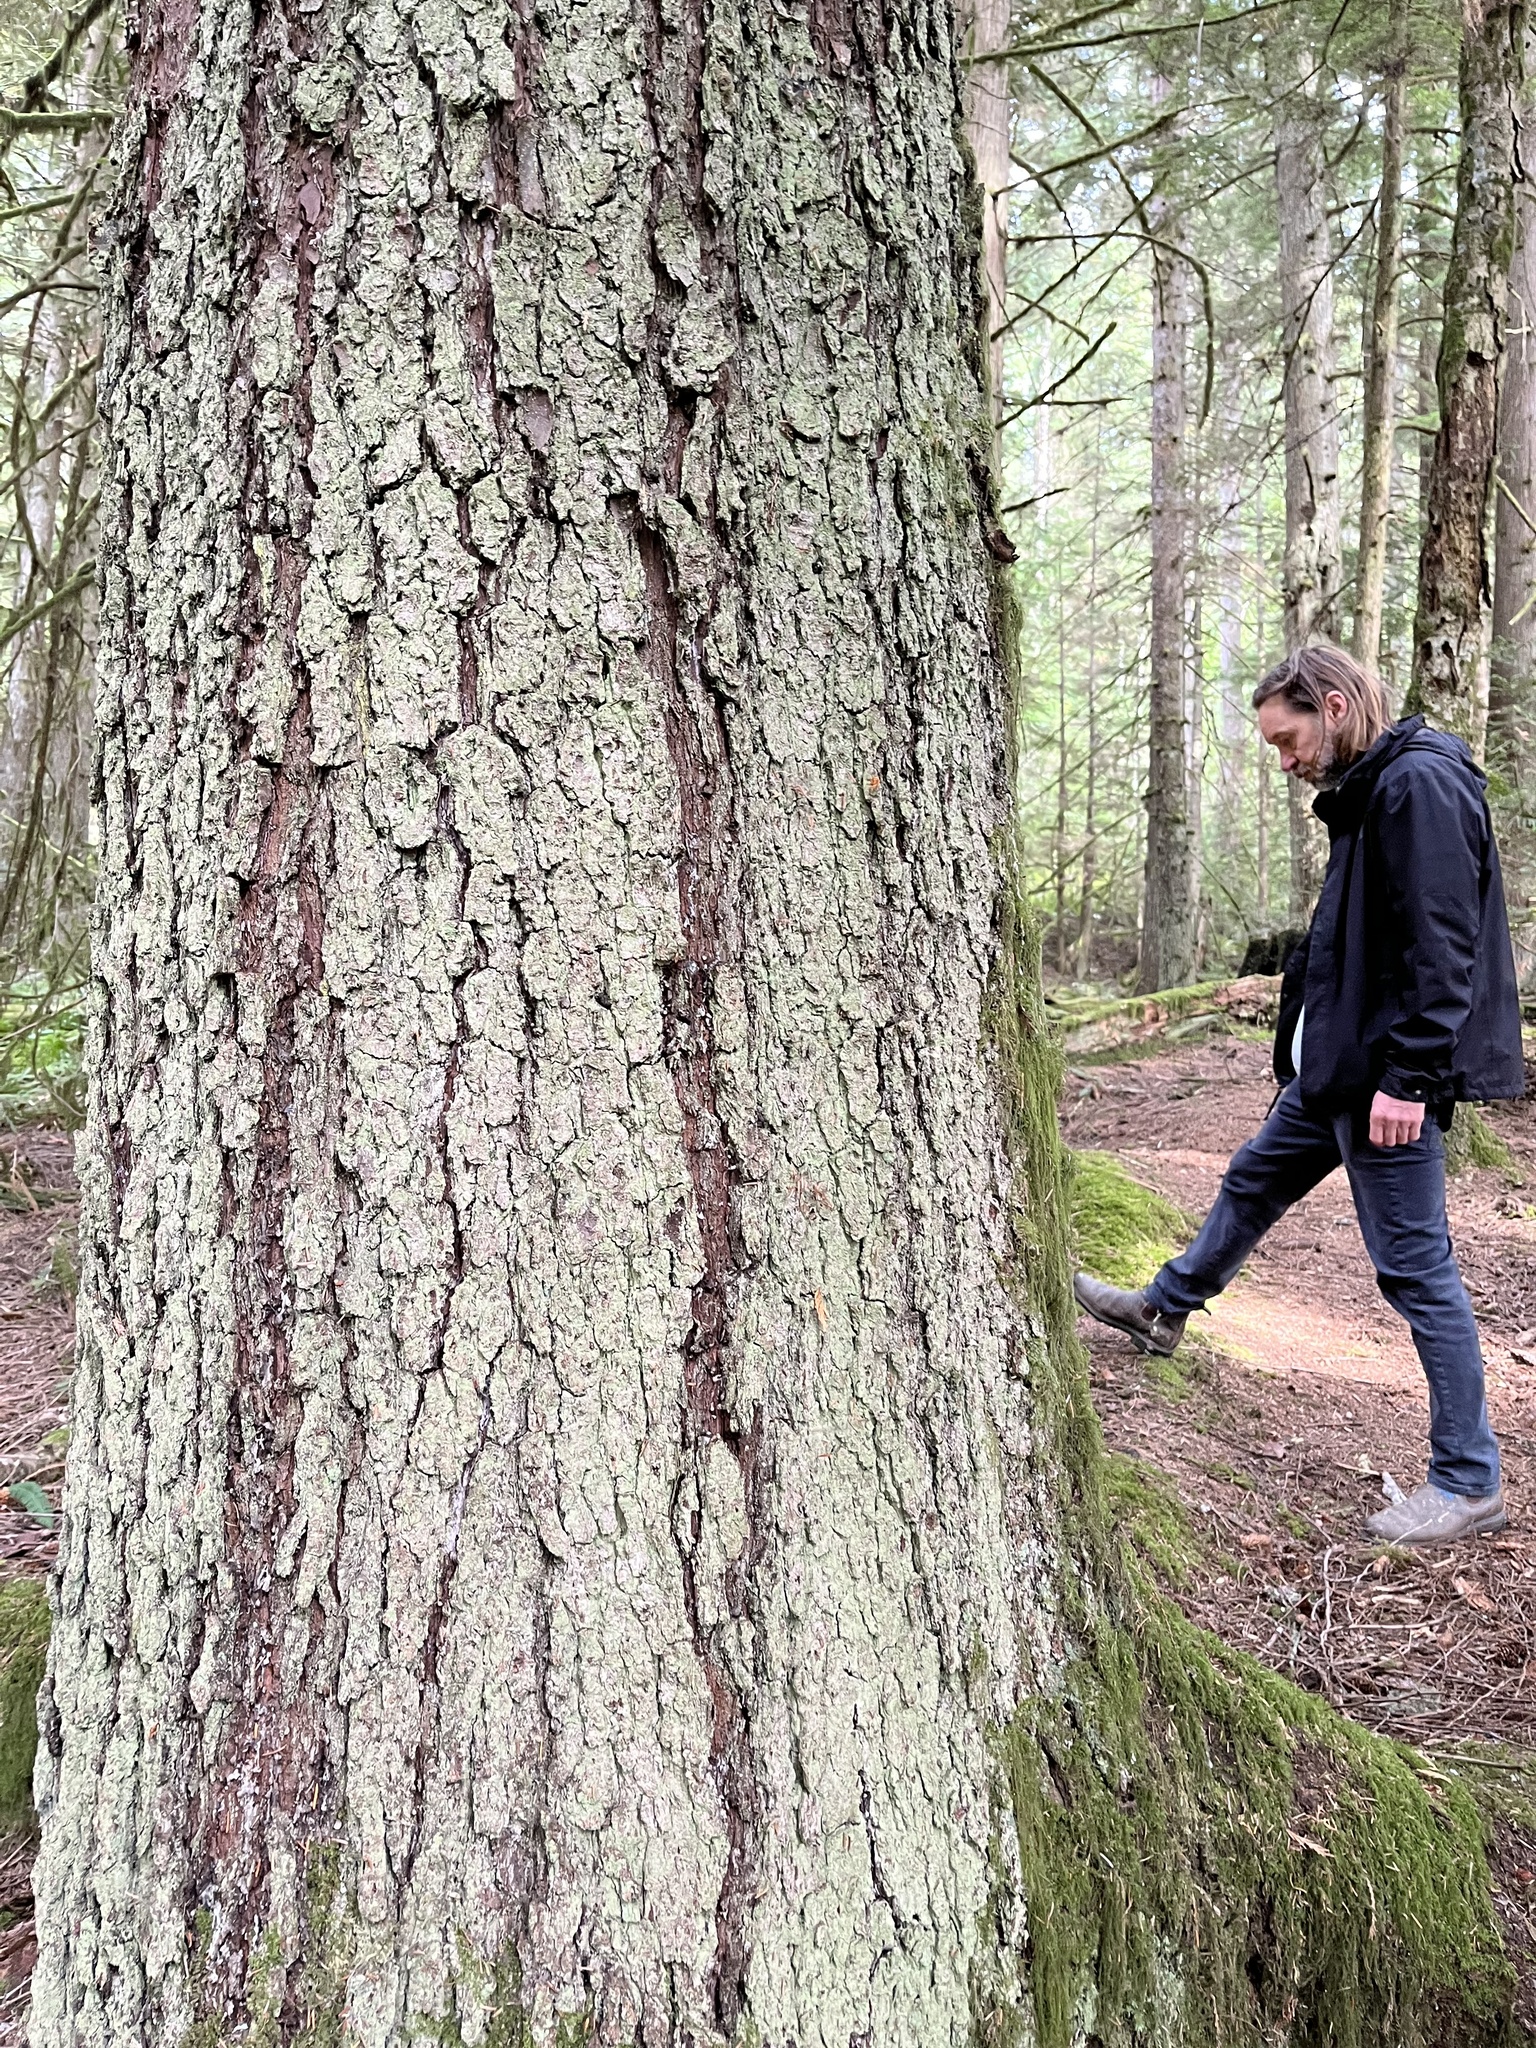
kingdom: Plantae
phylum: Tracheophyta
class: Pinopsida
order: Pinales
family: Pinaceae
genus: Picea
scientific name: Picea sitchensis
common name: Sitka spruce
